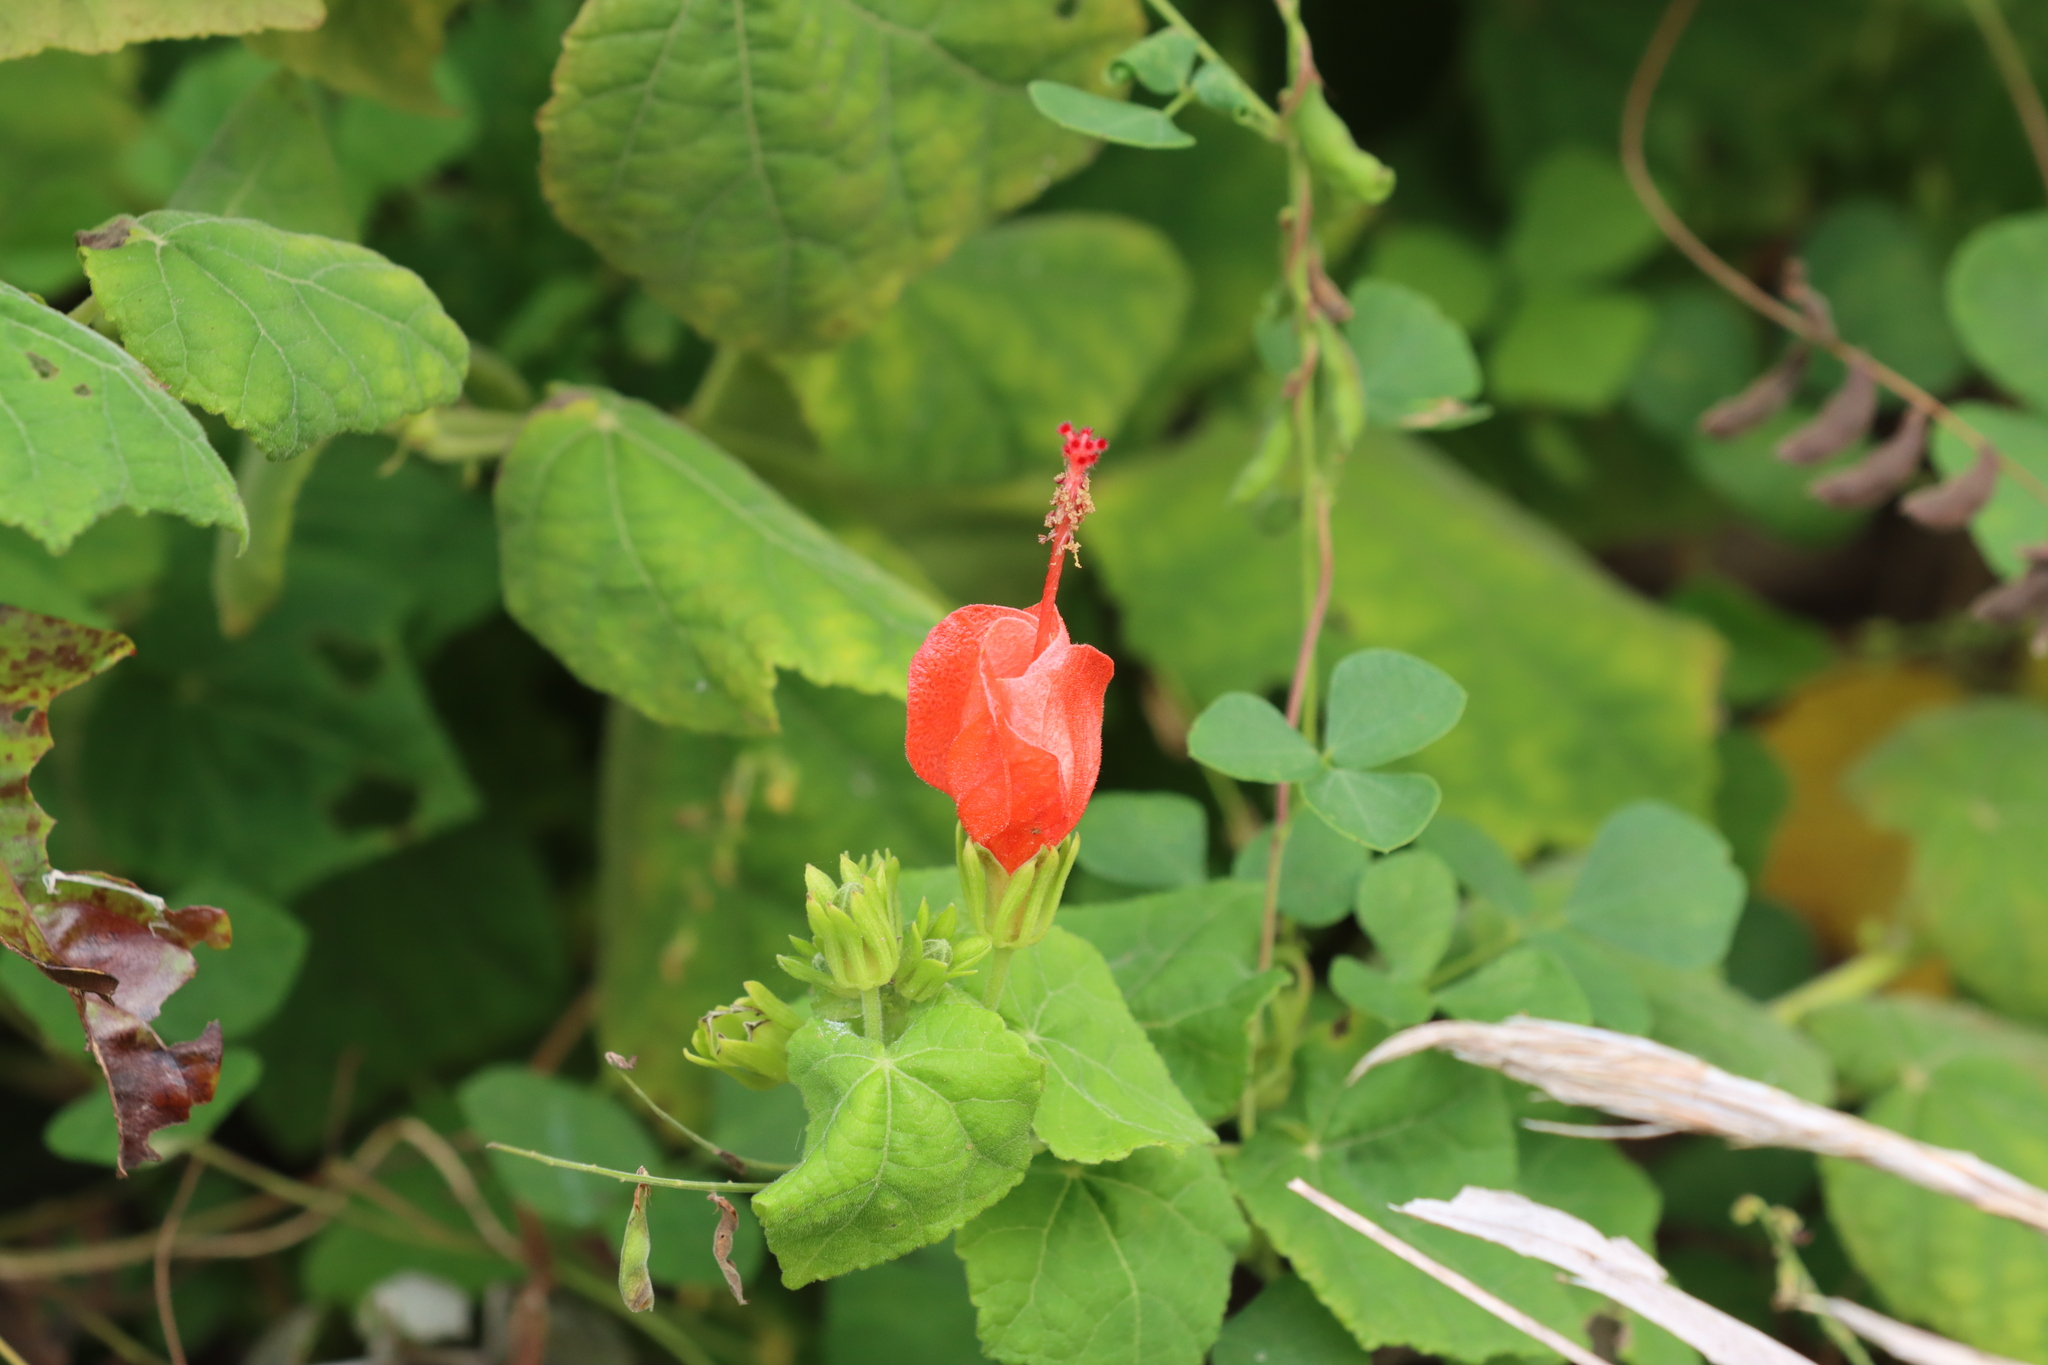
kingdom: Plantae
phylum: Tracheophyta
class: Magnoliopsida
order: Malvales
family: Malvaceae
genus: Malvaviscus
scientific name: Malvaviscus arboreus
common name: Wax mallow
